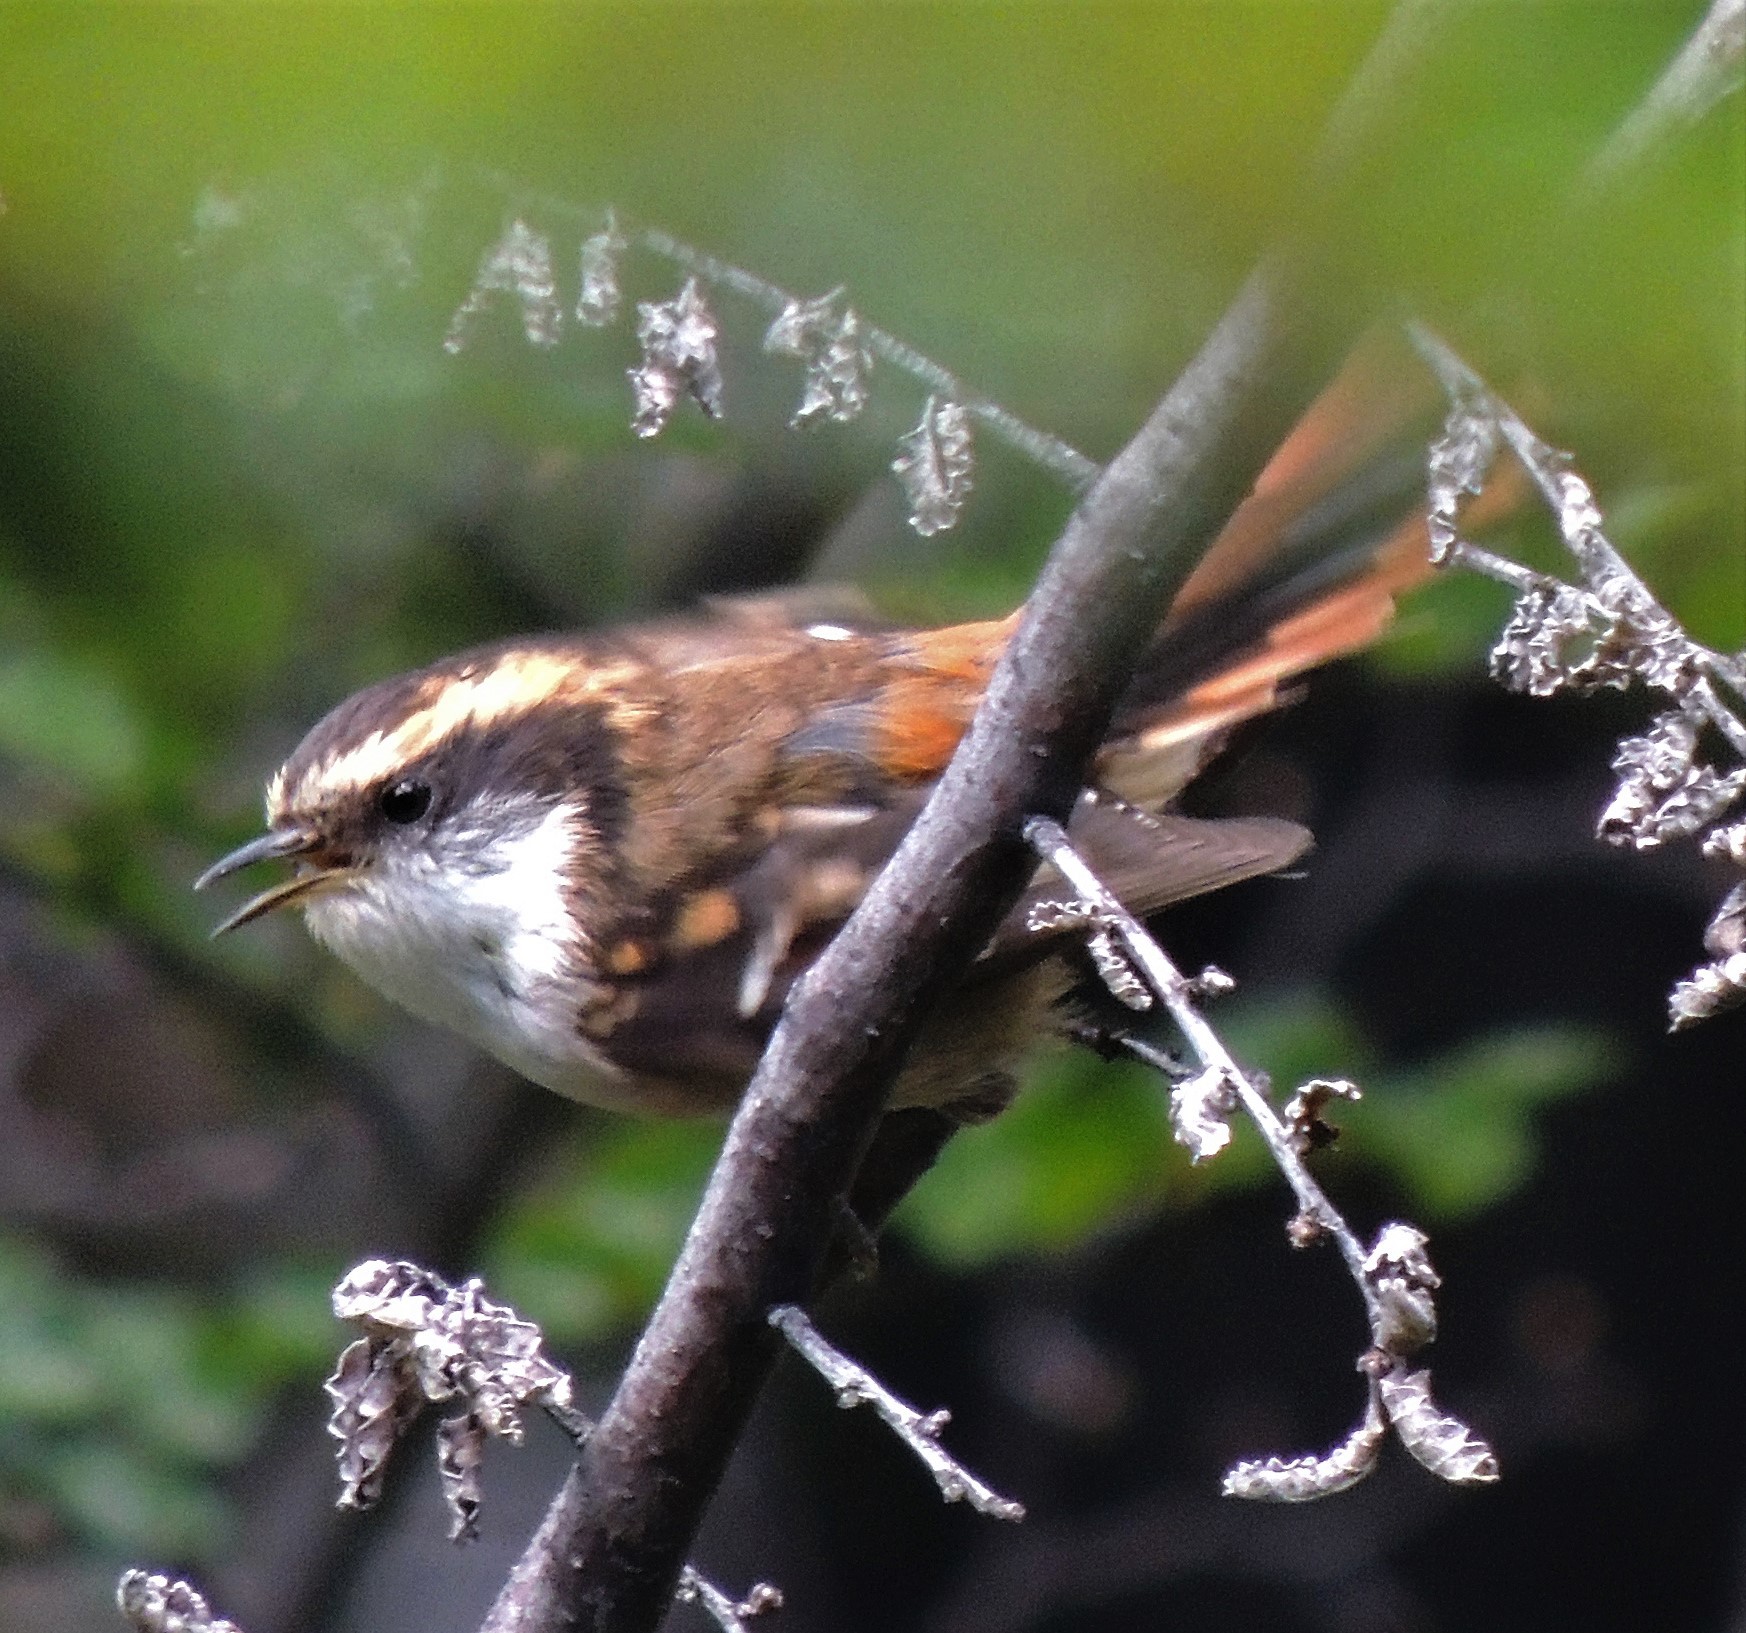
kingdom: Animalia
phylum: Chordata
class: Aves
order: Passeriformes
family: Furnariidae
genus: Aphrastura
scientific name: Aphrastura spinicauda
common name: Thorn-tailed rayadito
